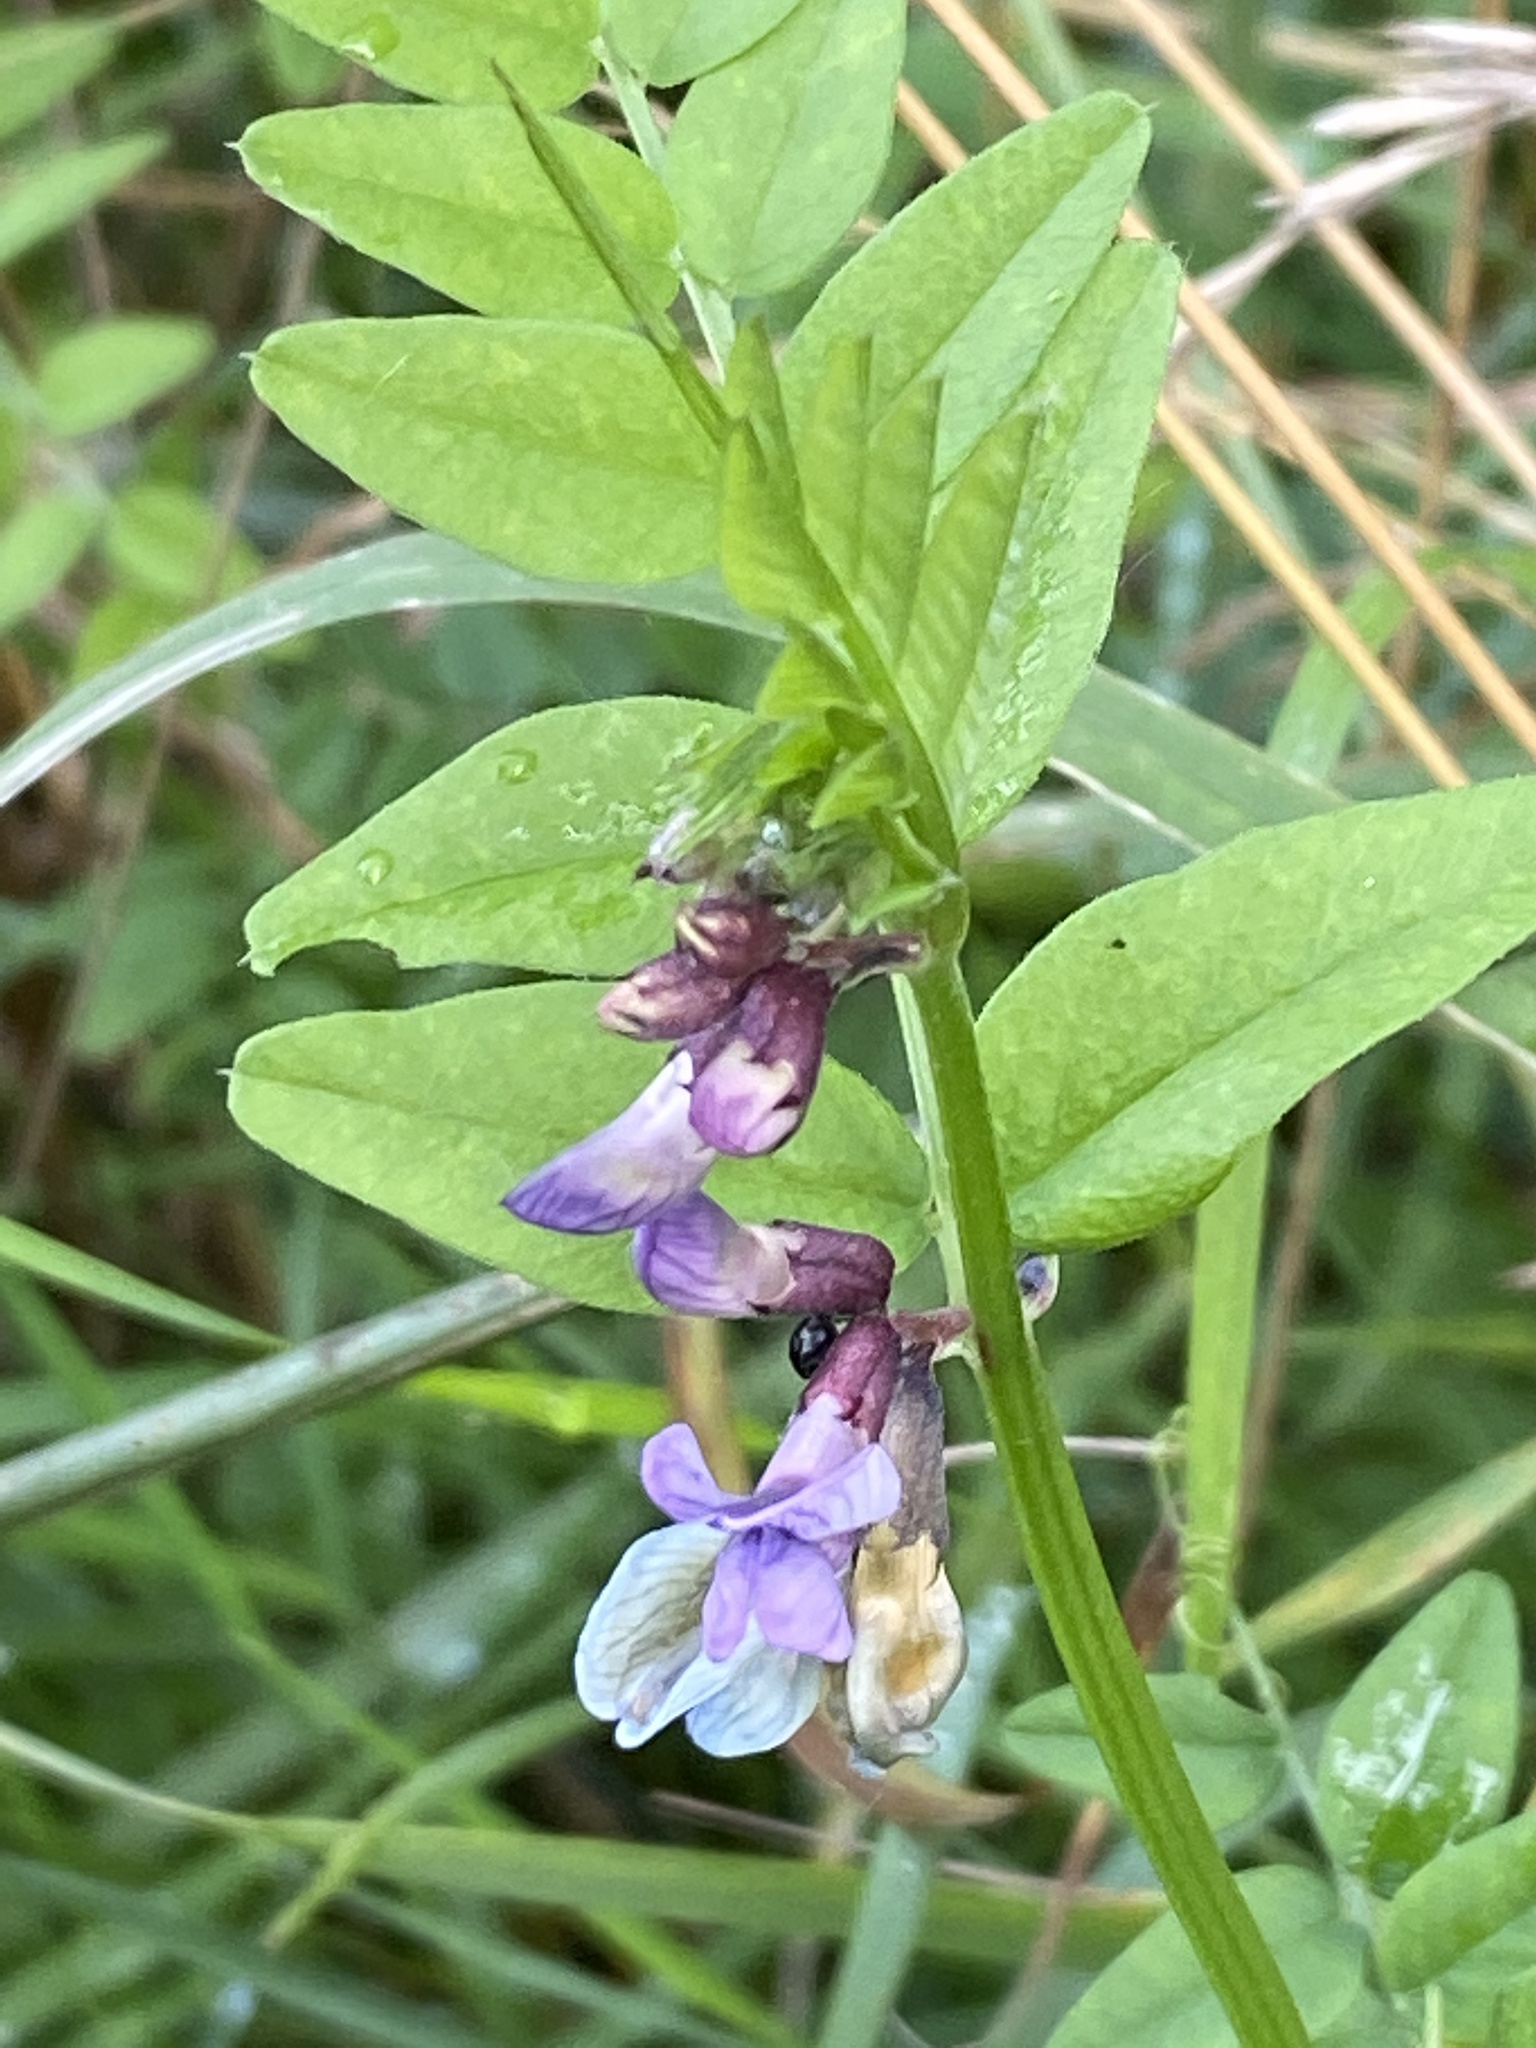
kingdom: Plantae
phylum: Tracheophyta
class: Magnoliopsida
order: Fabales
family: Fabaceae
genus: Vicia
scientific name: Vicia sepium
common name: Bush vetch
